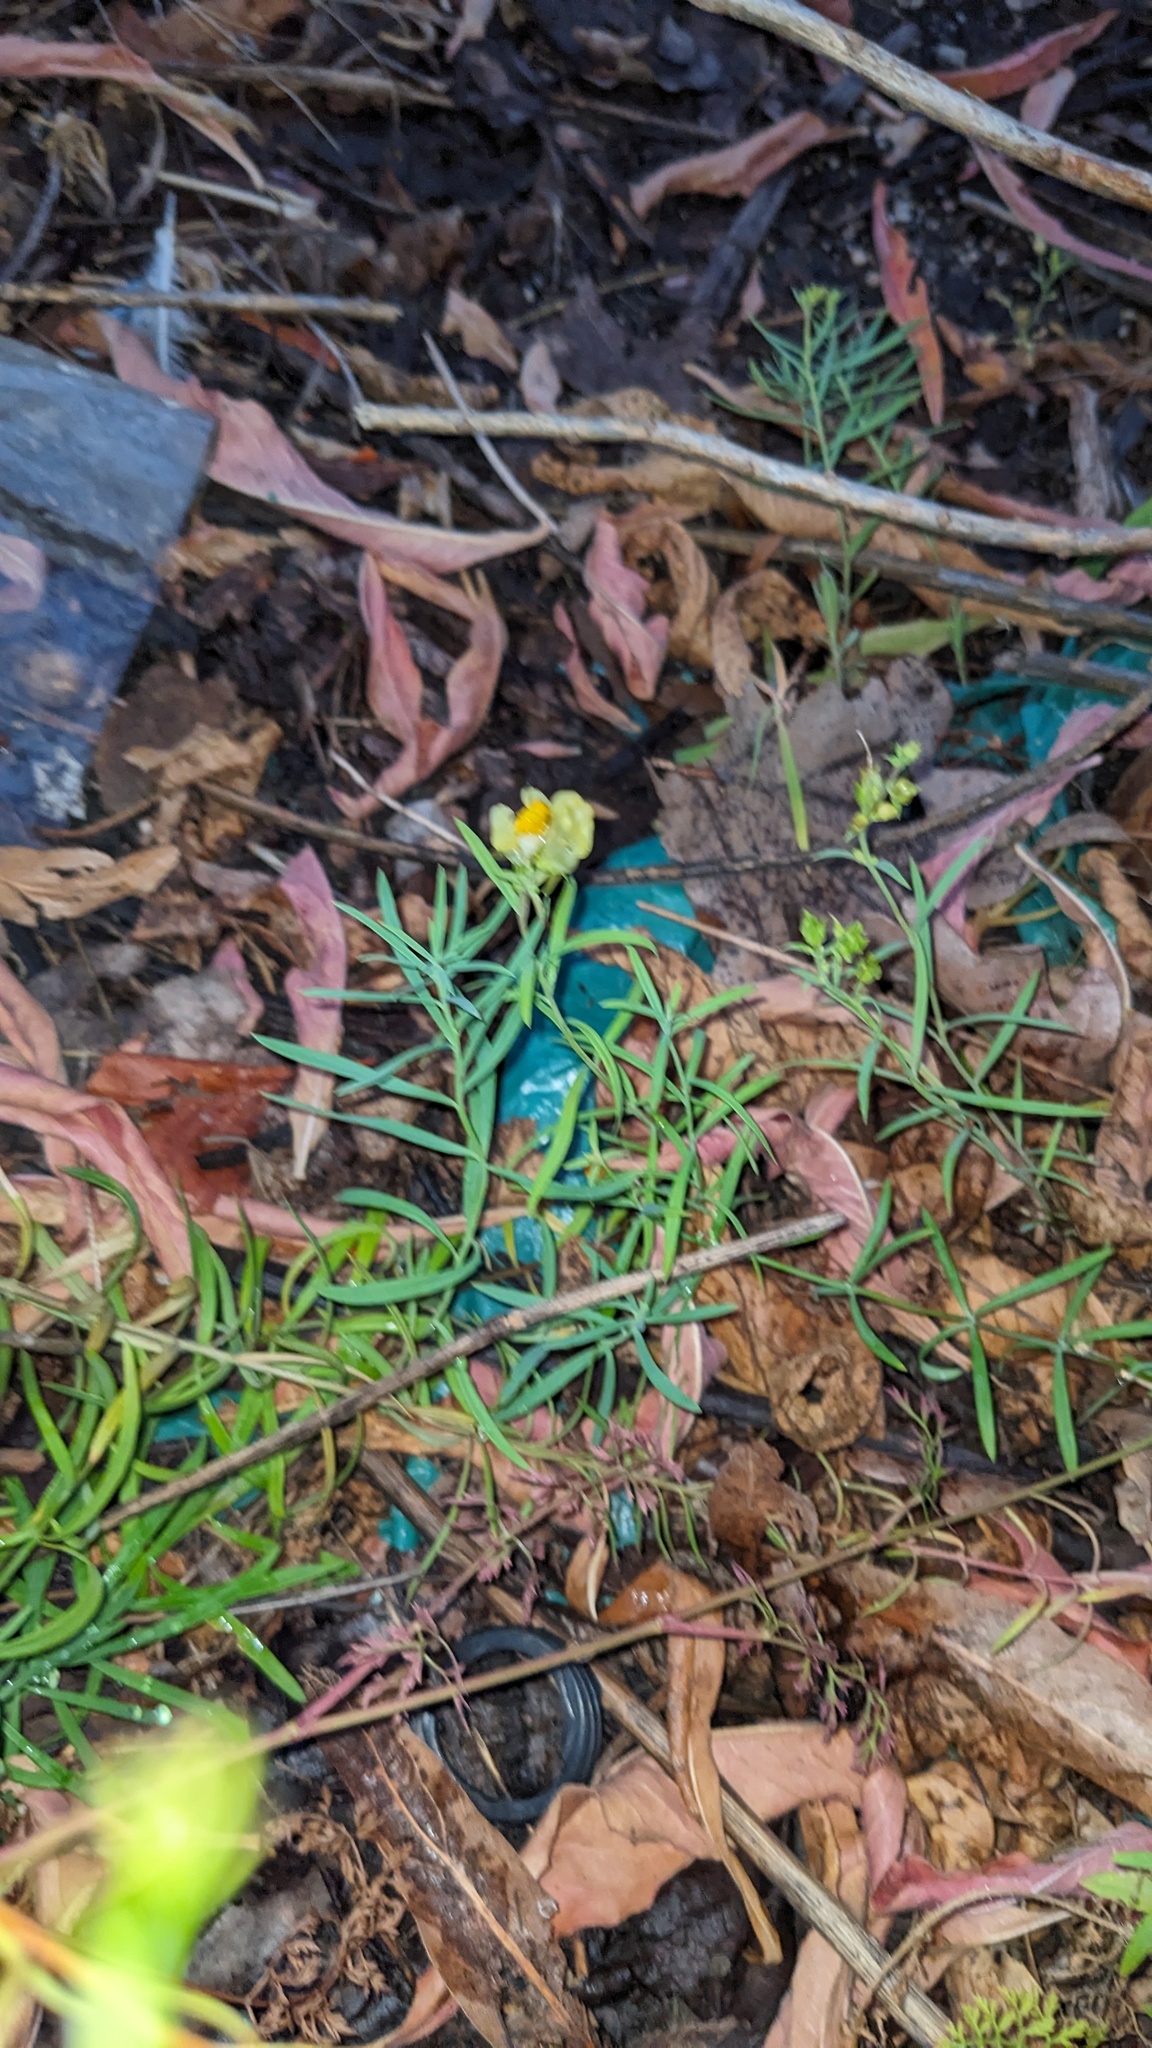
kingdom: Plantae
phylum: Tracheophyta
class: Magnoliopsida
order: Lamiales
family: Plantaginaceae
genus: Linaria
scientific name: Linaria vulgaris
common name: Butter and eggs
